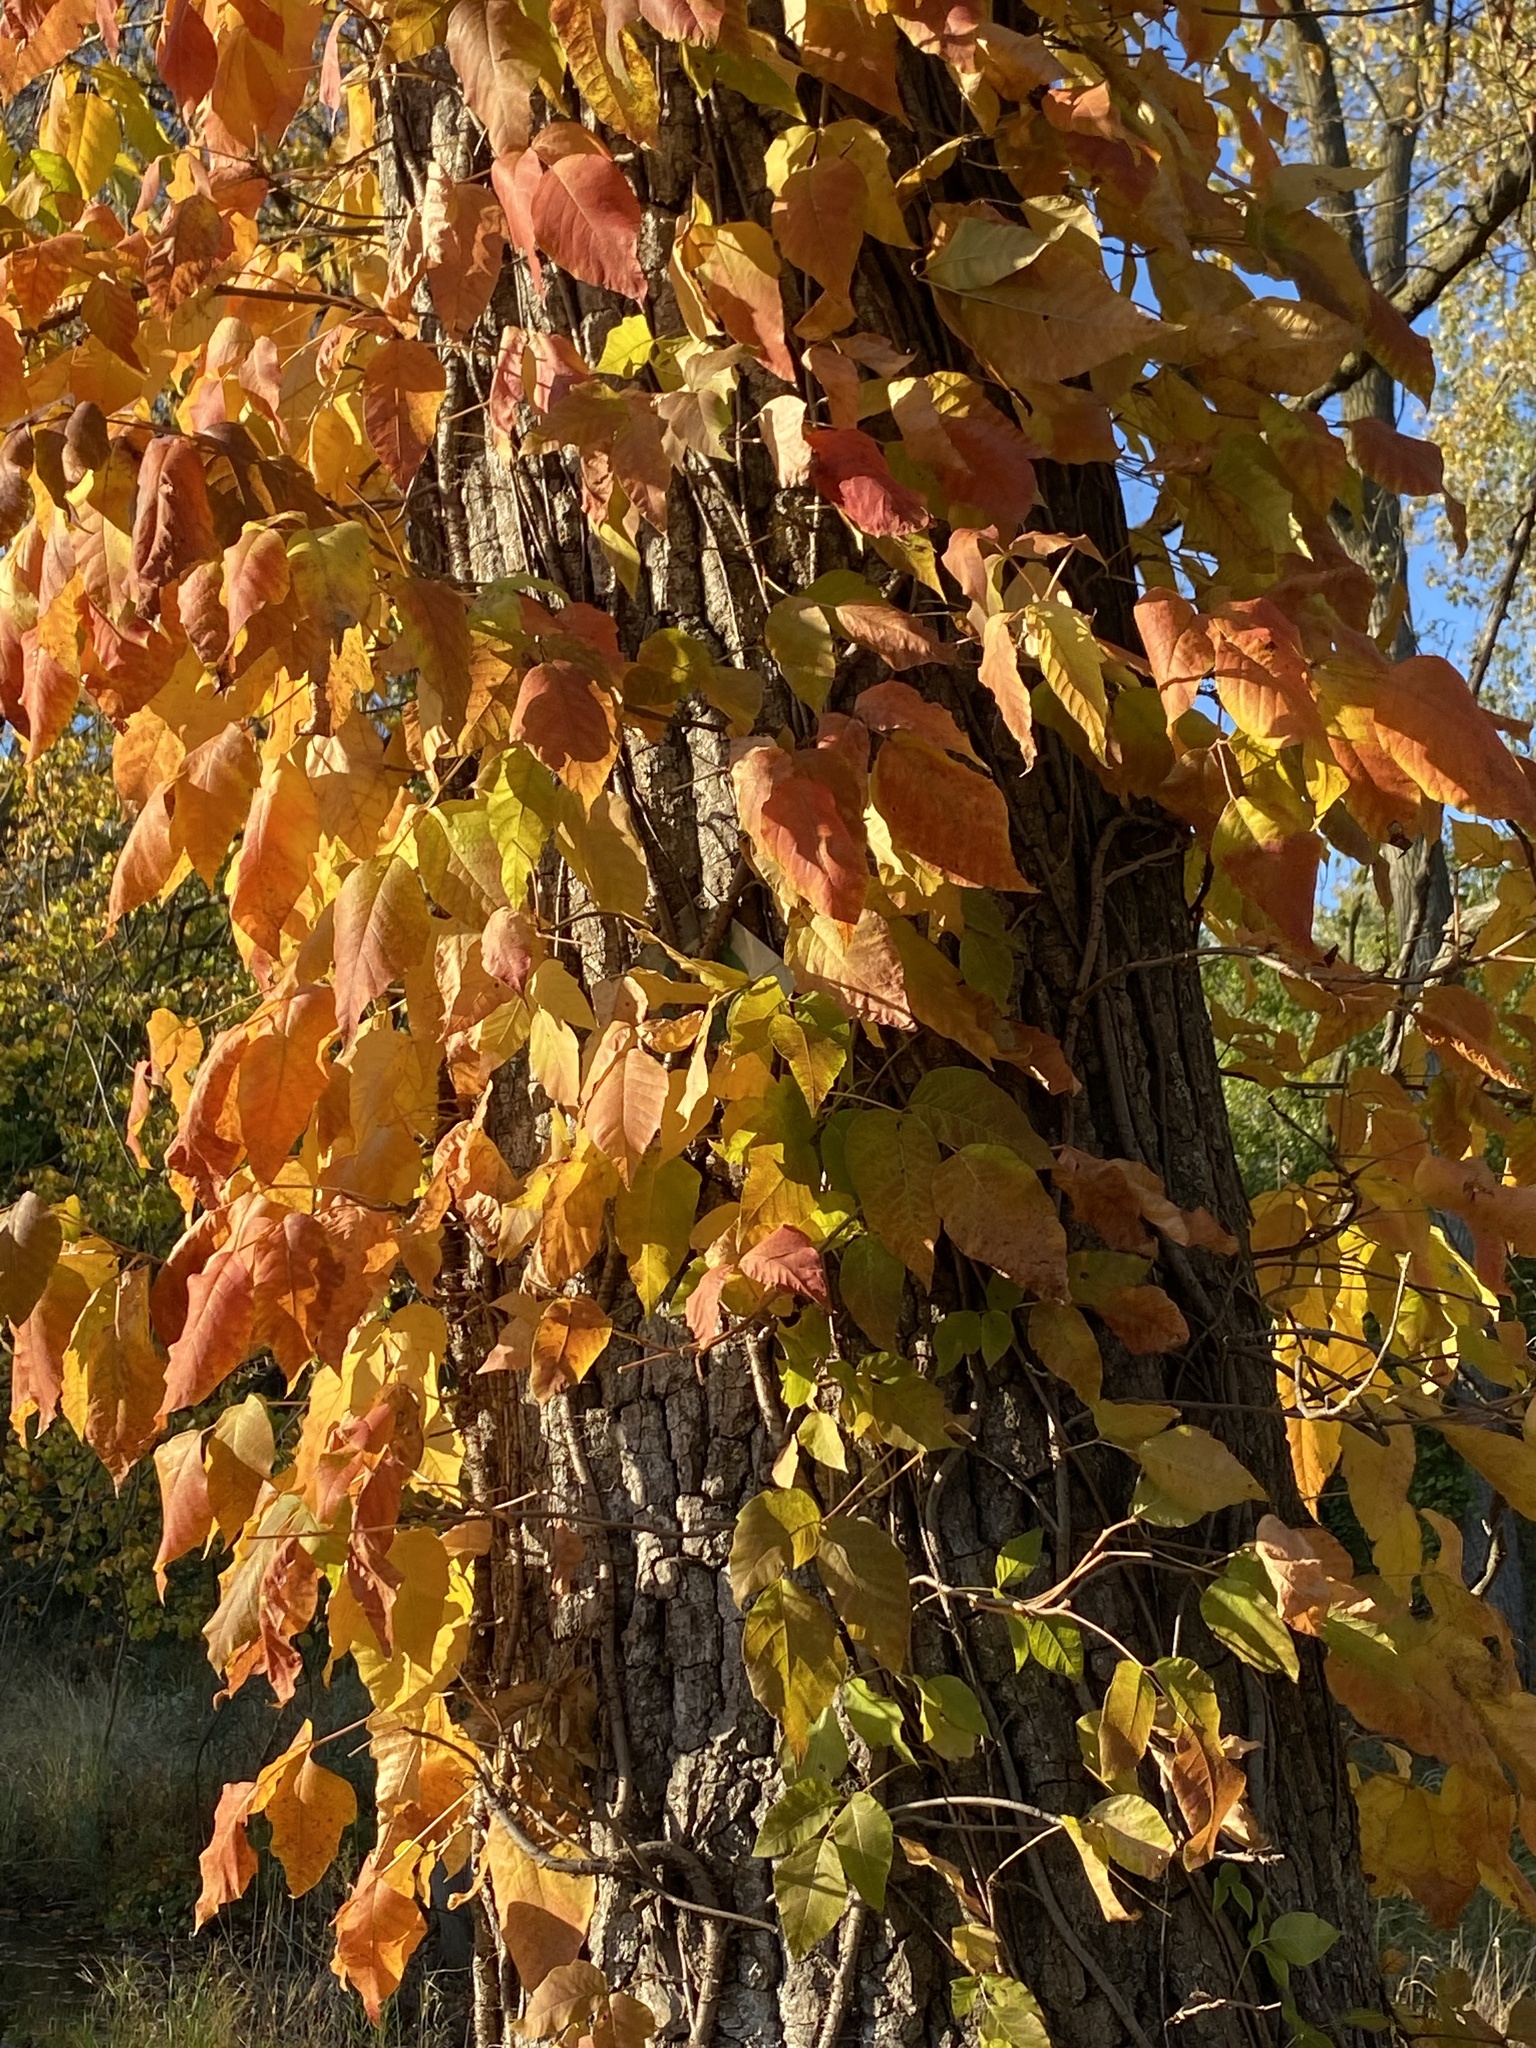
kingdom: Plantae
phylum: Tracheophyta
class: Magnoliopsida
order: Sapindales
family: Anacardiaceae
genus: Toxicodendron
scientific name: Toxicodendron radicans
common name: Poison ivy
